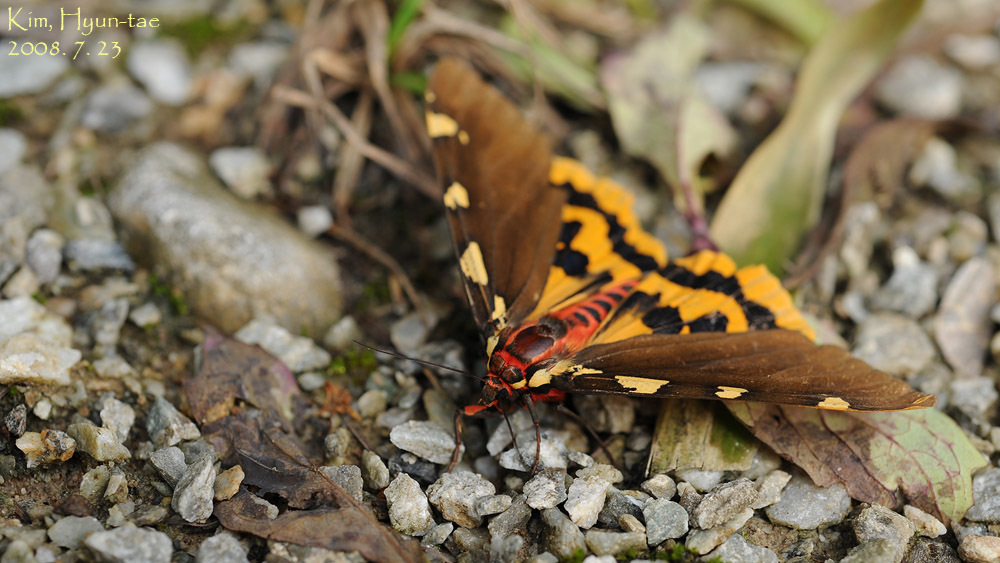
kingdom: Animalia
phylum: Arthropoda
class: Insecta
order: Lepidoptera
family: Erebidae
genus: Pericallia
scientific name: Pericallia matronula
